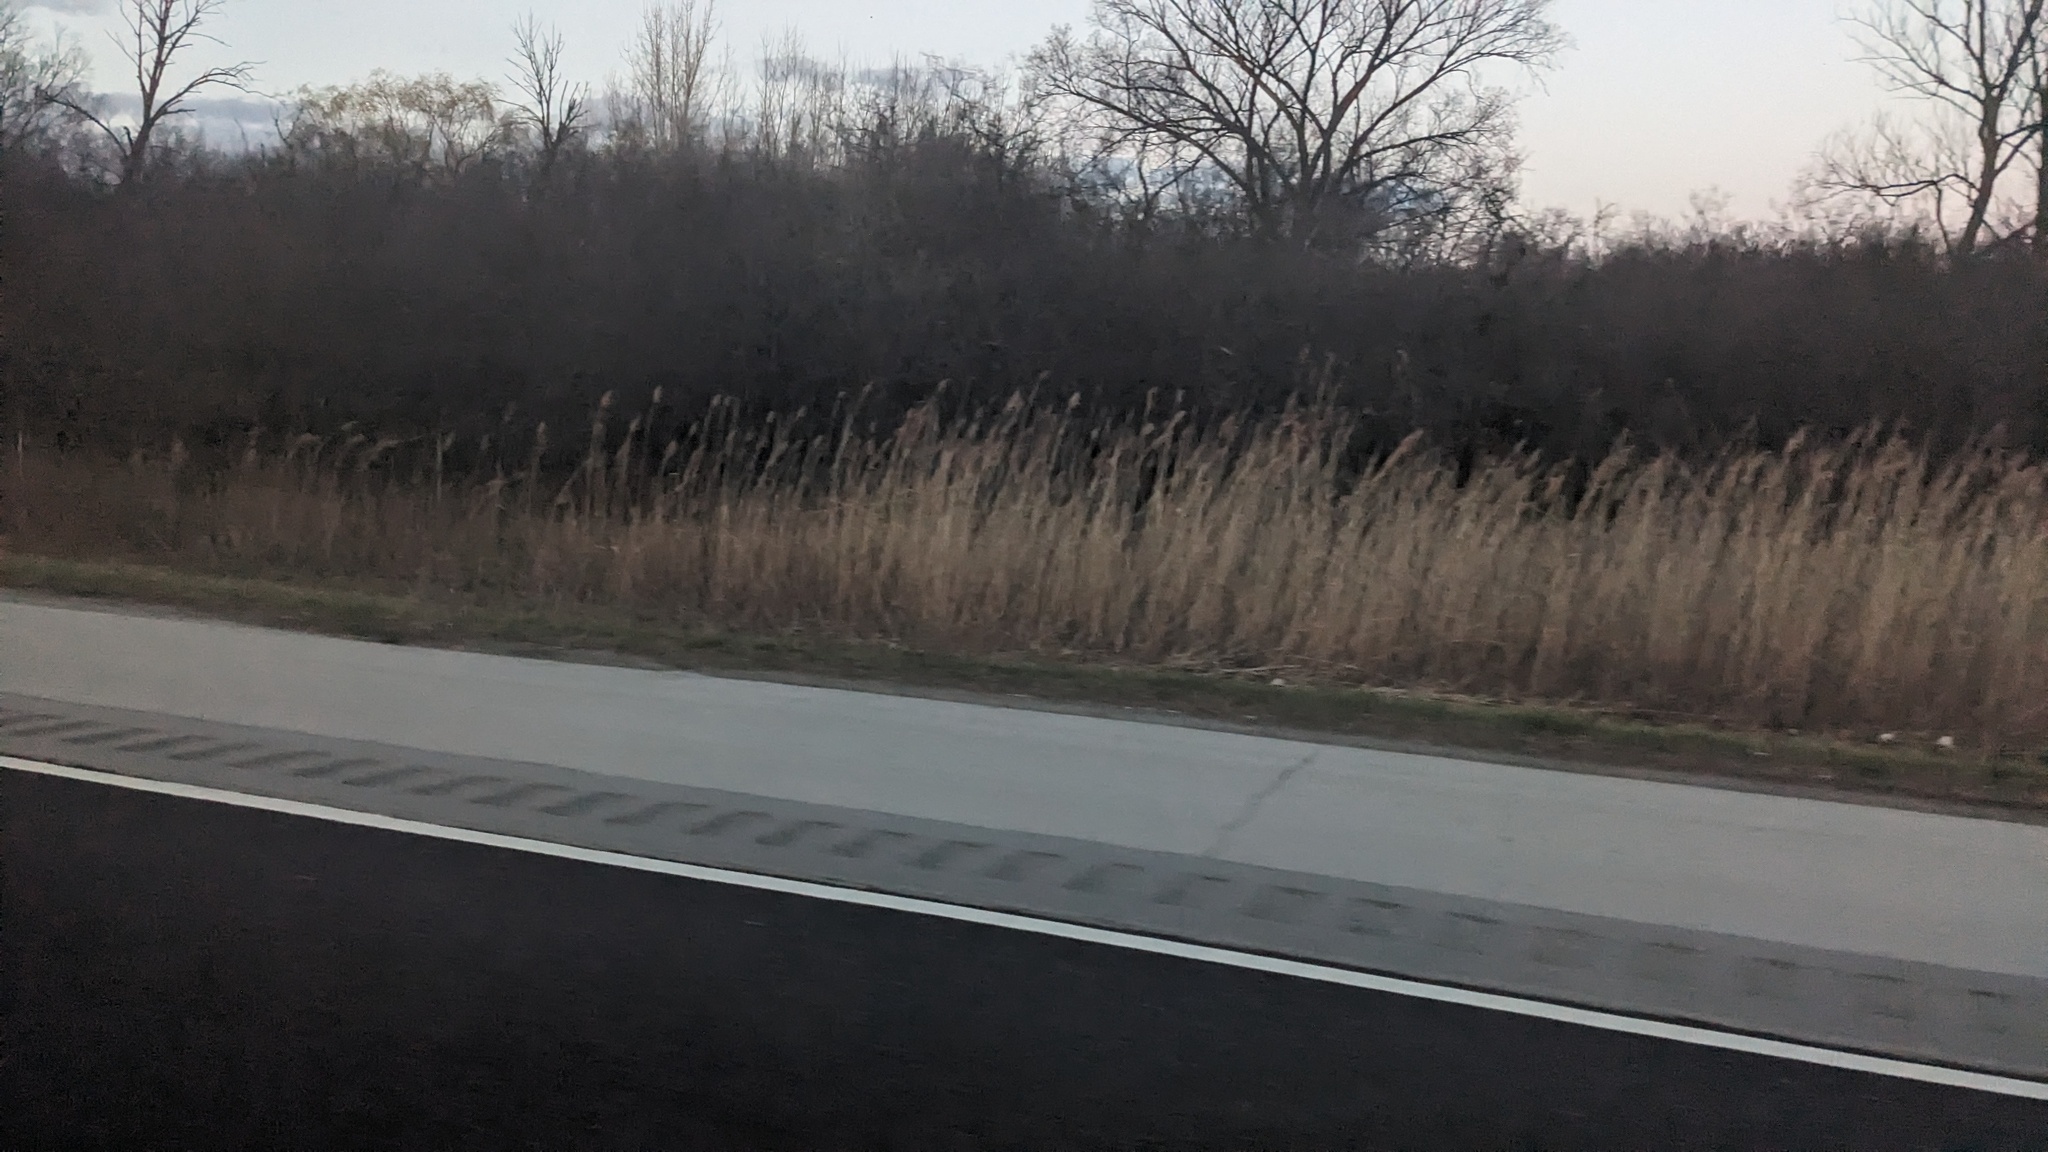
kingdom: Plantae
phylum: Tracheophyta
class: Liliopsida
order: Poales
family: Poaceae
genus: Phragmites
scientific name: Phragmites australis
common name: Common reed
